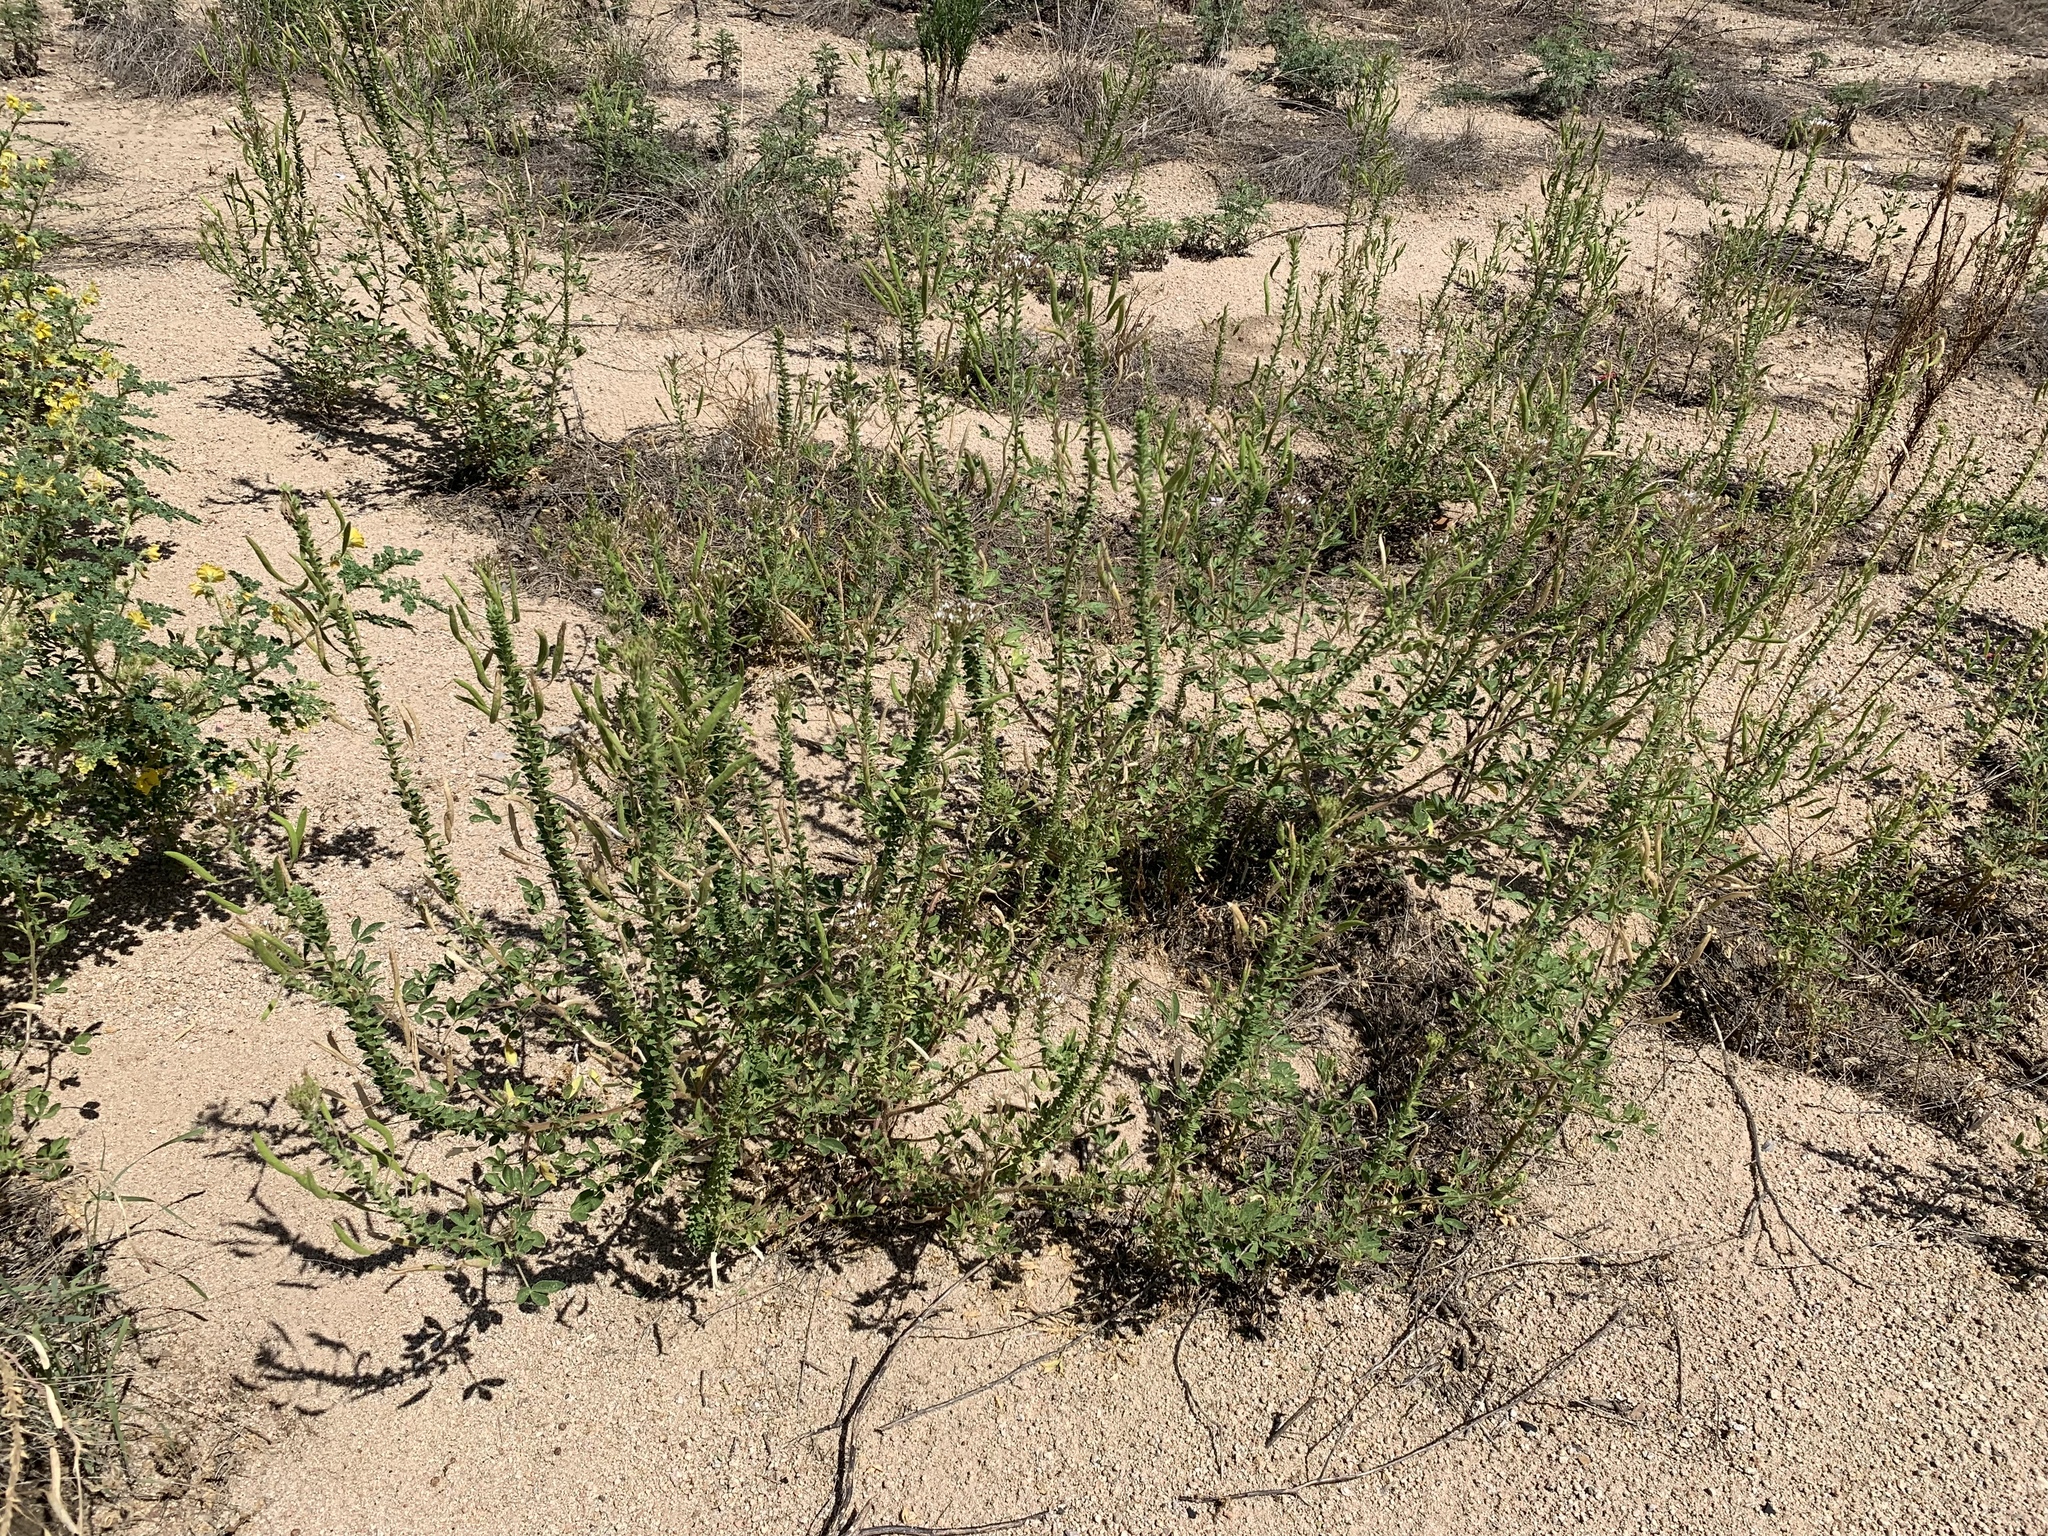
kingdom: Plantae
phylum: Tracheophyta
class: Magnoliopsida
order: Brassicales
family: Cleomaceae
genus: Polanisia
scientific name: Polanisia trachysperma
